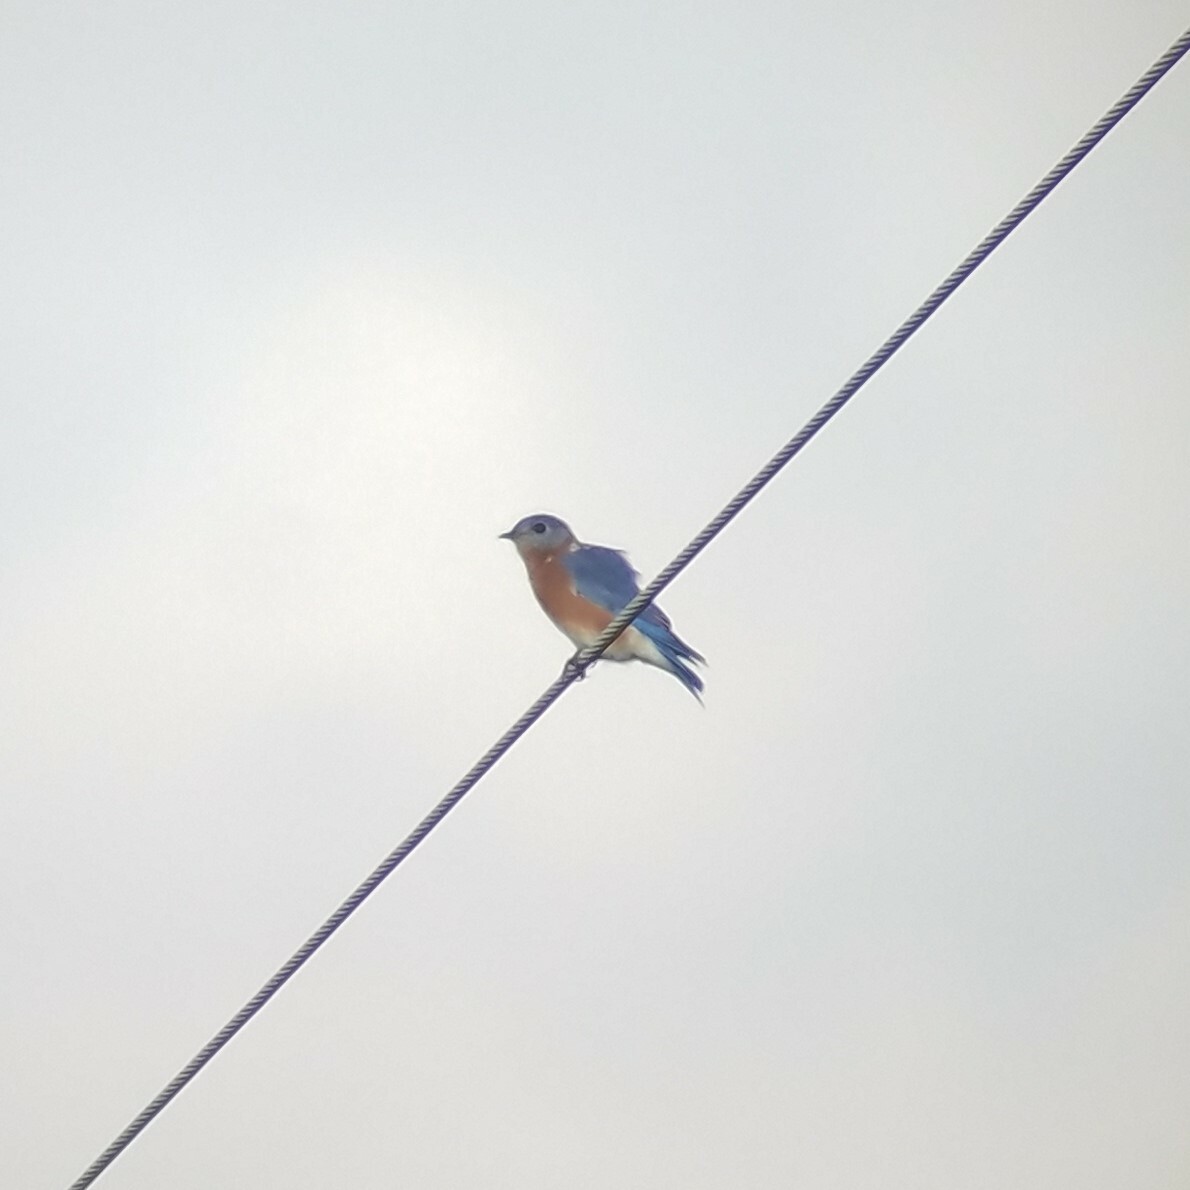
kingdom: Animalia
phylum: Chordata
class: Aves
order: Passeriformes
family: Turdidae
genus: Sialia
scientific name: Sialia sialis
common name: Eastern bluebird
